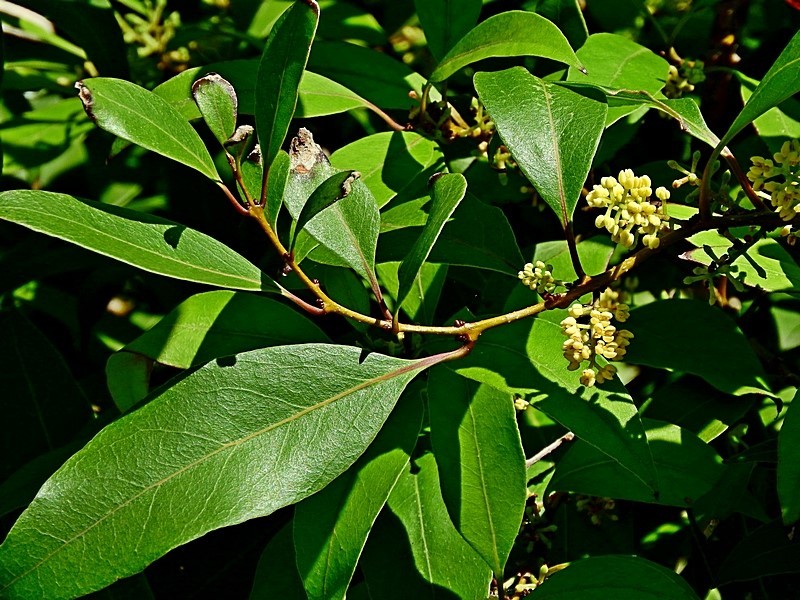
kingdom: Plantae
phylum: Tracheophyta
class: Magnoliopsida
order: Lamiales
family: Oleaceae
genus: Notelaea
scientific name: Notelaea venosa
